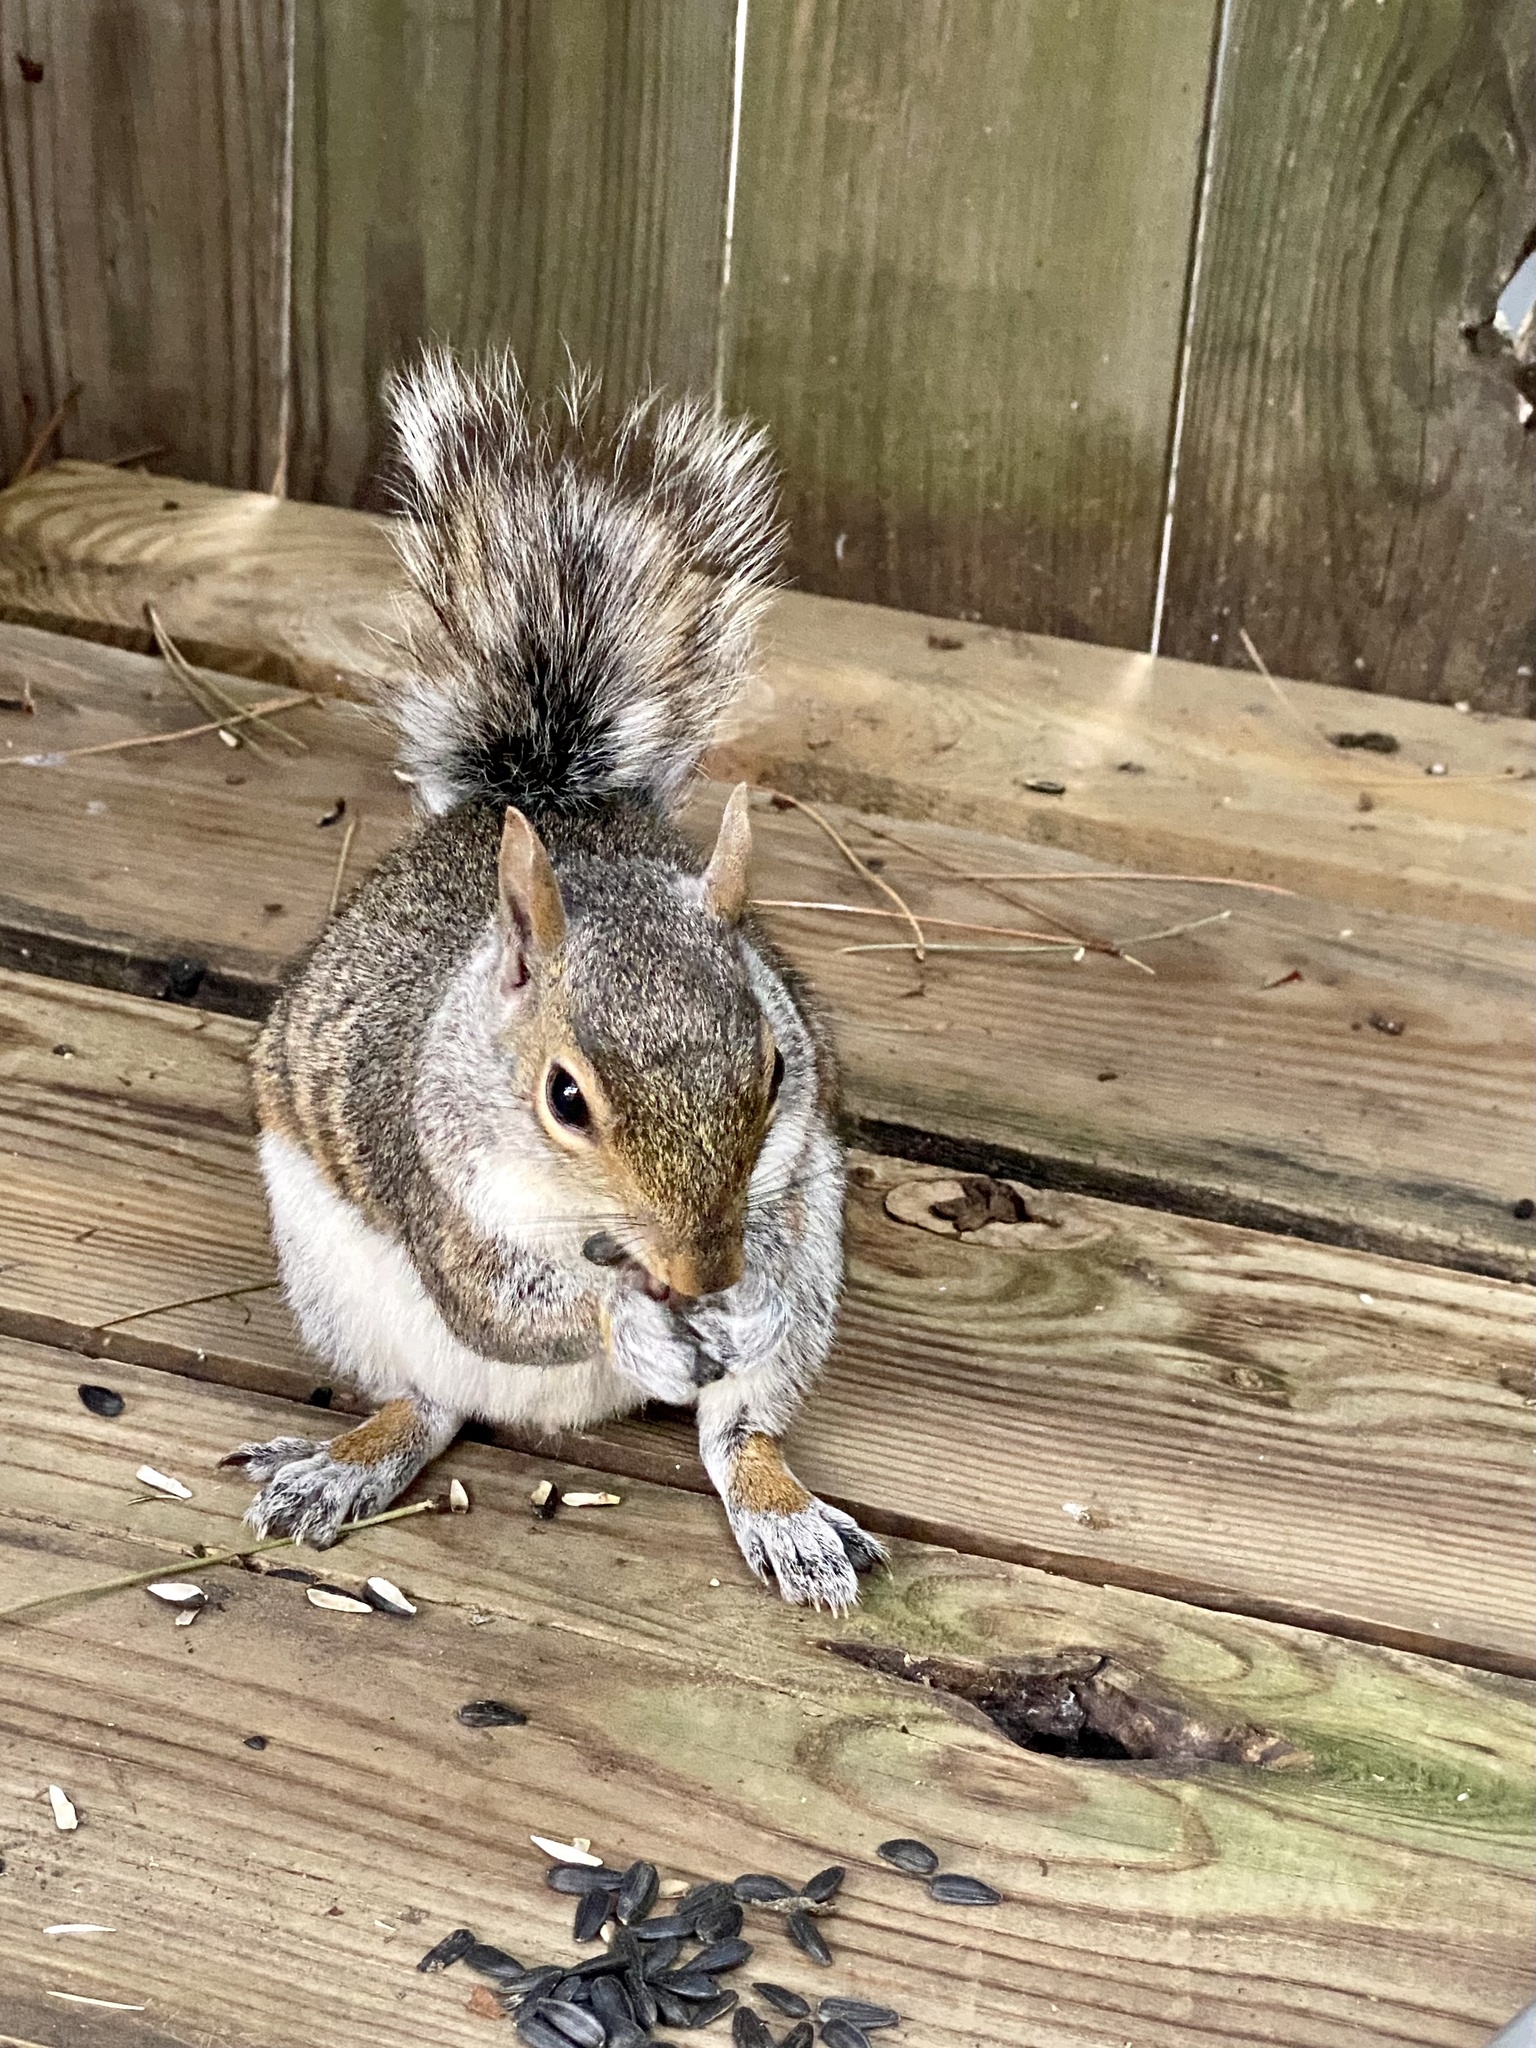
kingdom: Animalia
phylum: Chordata
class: Mammalia
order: Rodentia
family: Sciuridae
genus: Sciurus
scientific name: Sciurus carolinensis
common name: Eastern gray squirrel
